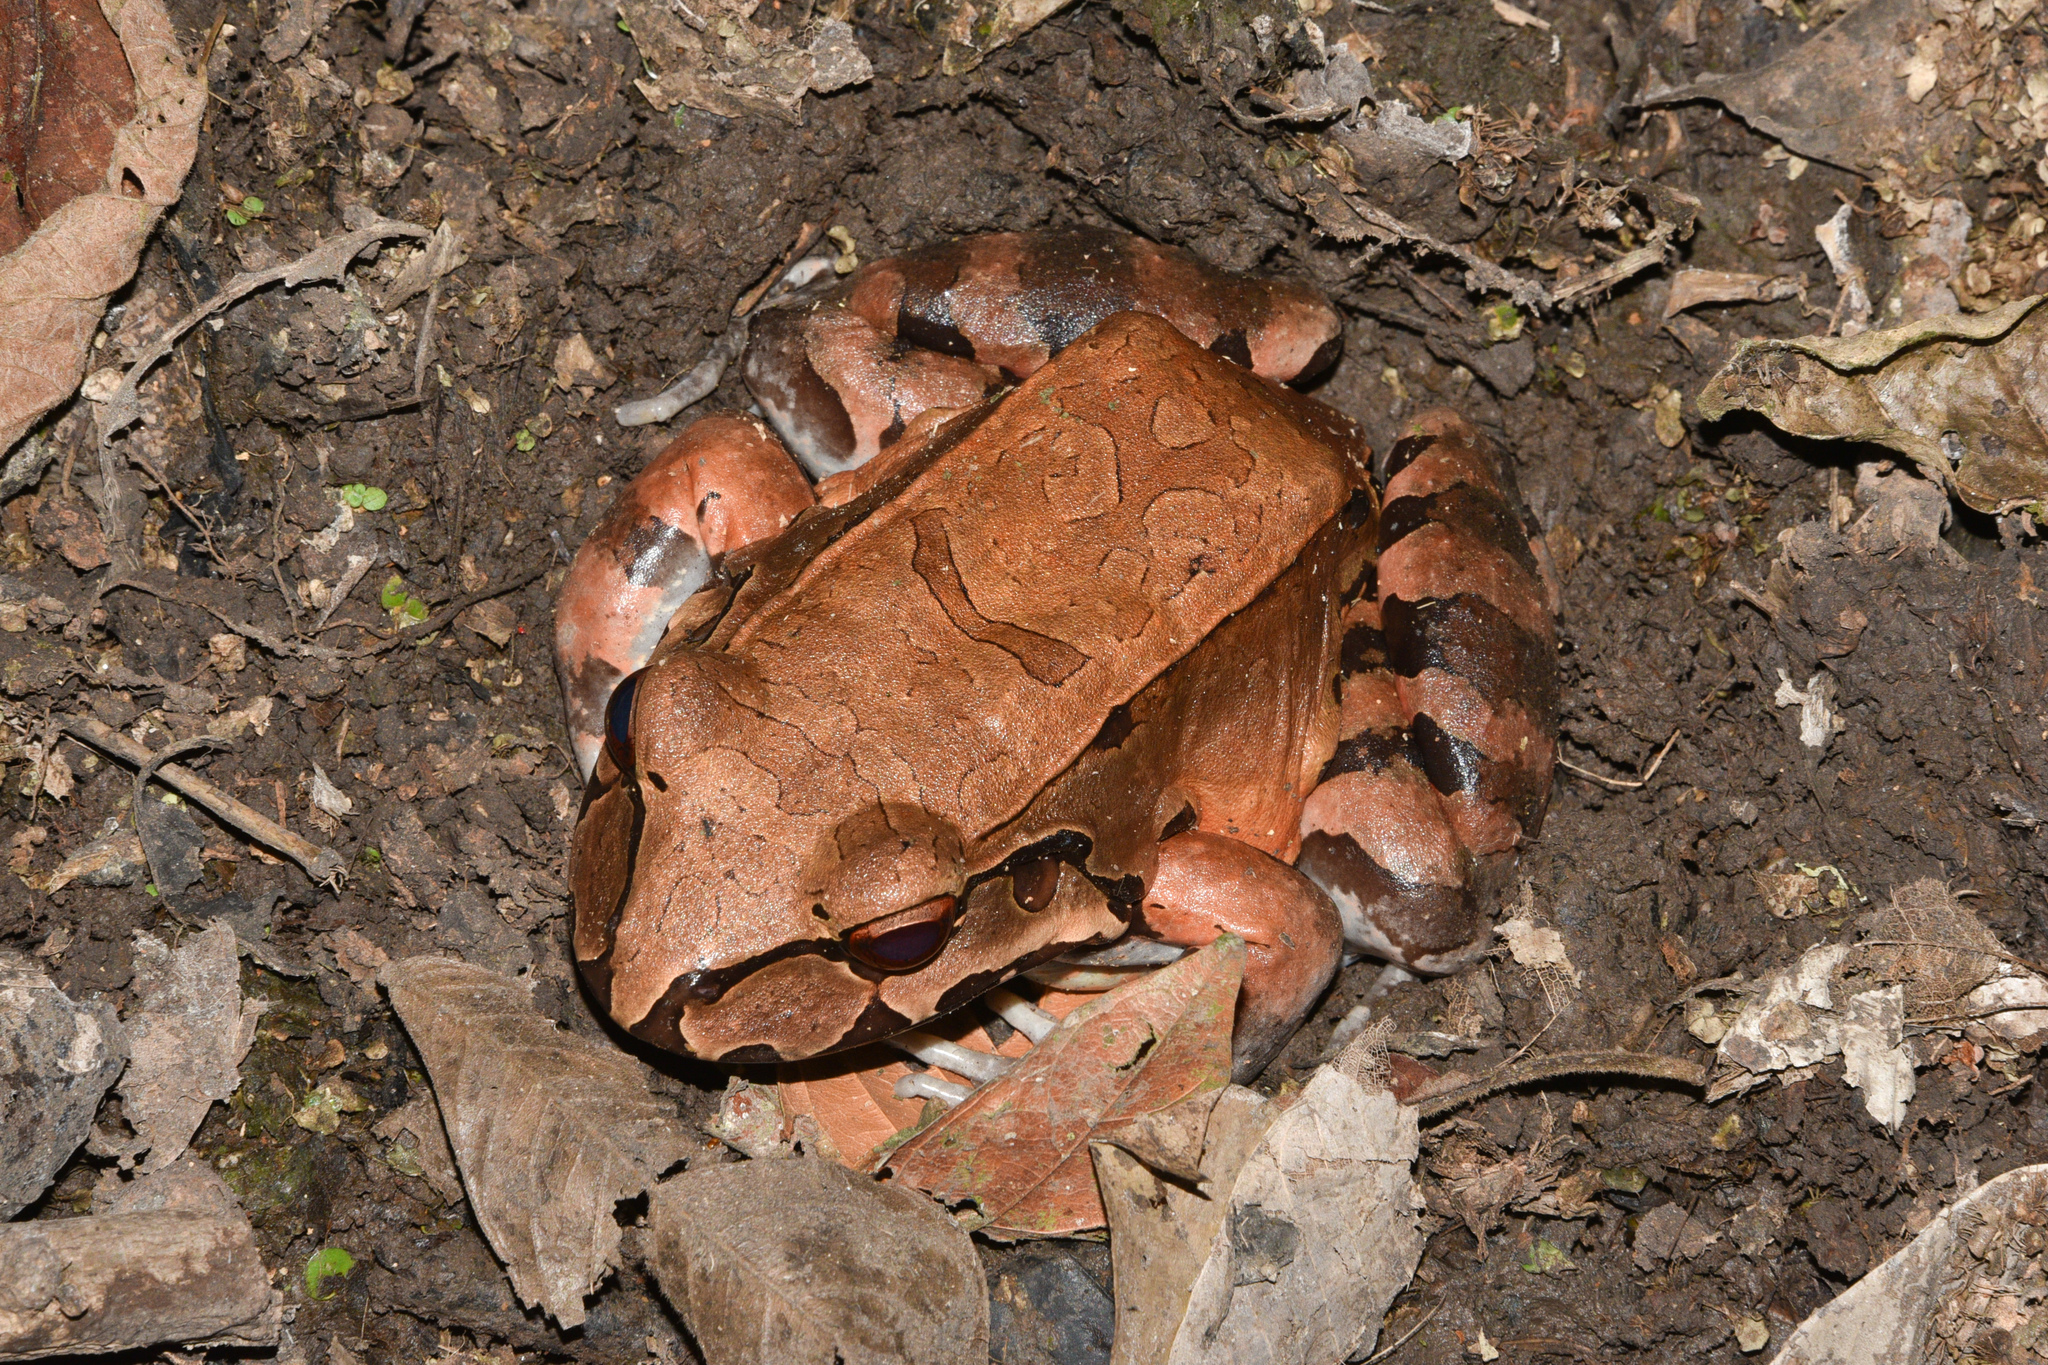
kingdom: Animalia
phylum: Chordata
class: Amphibia
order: Anura
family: Leptodactylidae
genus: Leptodactylus
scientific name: Leptodactylus savagei
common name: Savage's thin-toed frog
